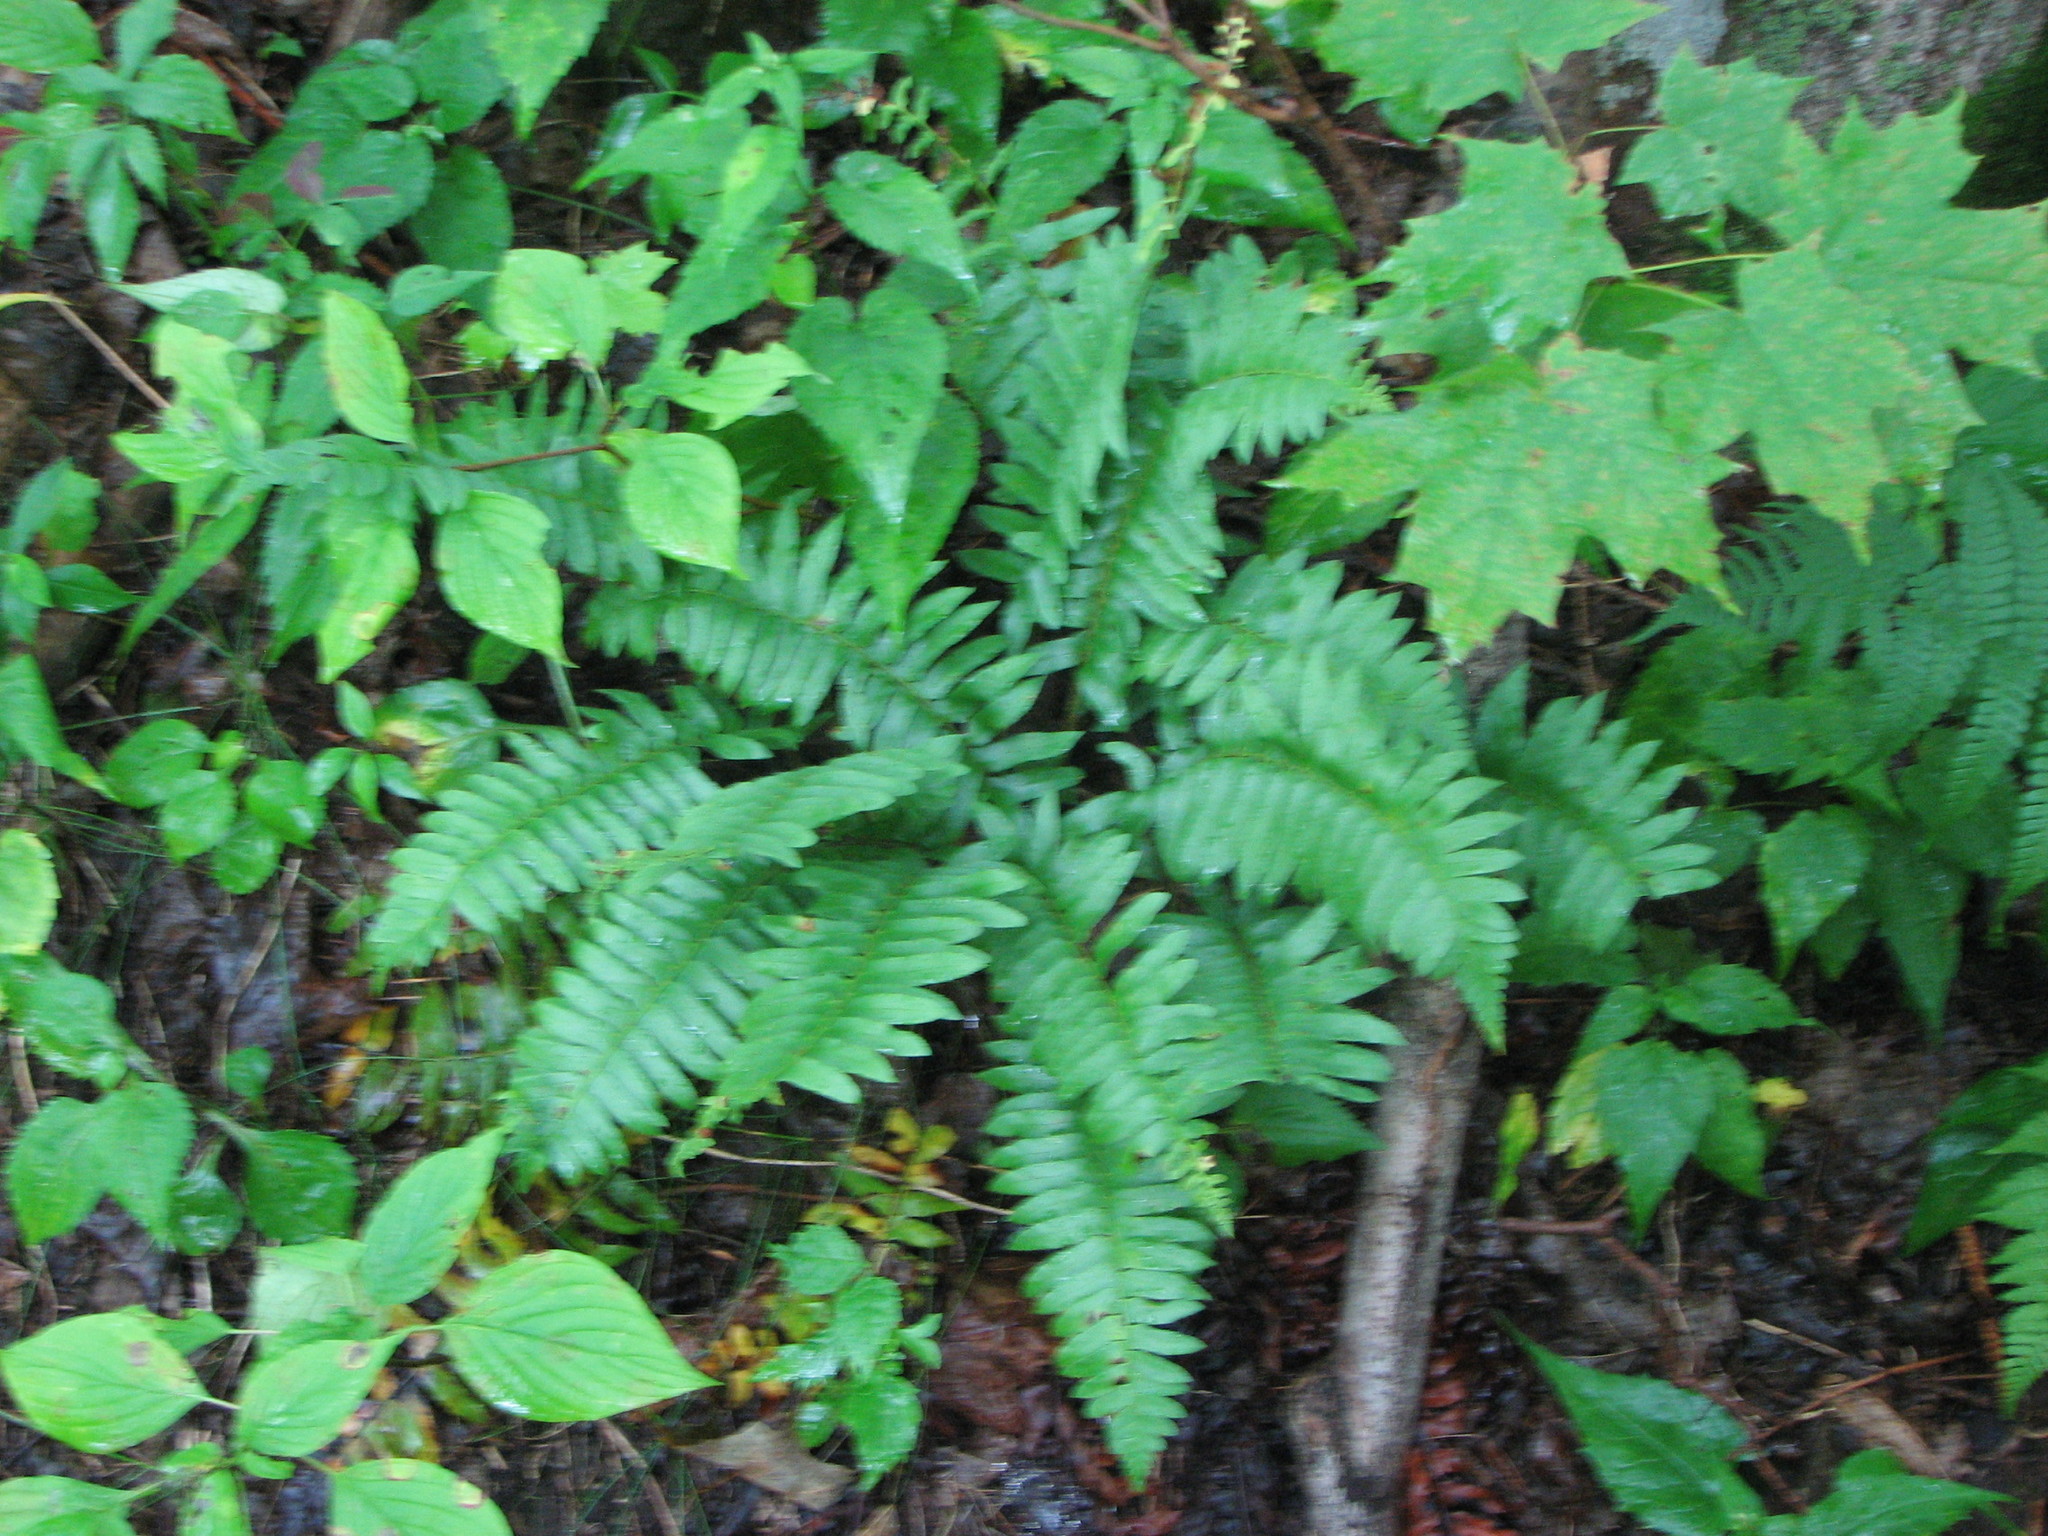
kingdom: Plantae
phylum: Tracheophyta
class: Polypodiopsida
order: Polypodiales
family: Dryopteridaceae
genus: Polystichum
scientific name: Polystichum acrostichoides
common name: Christmas fern
